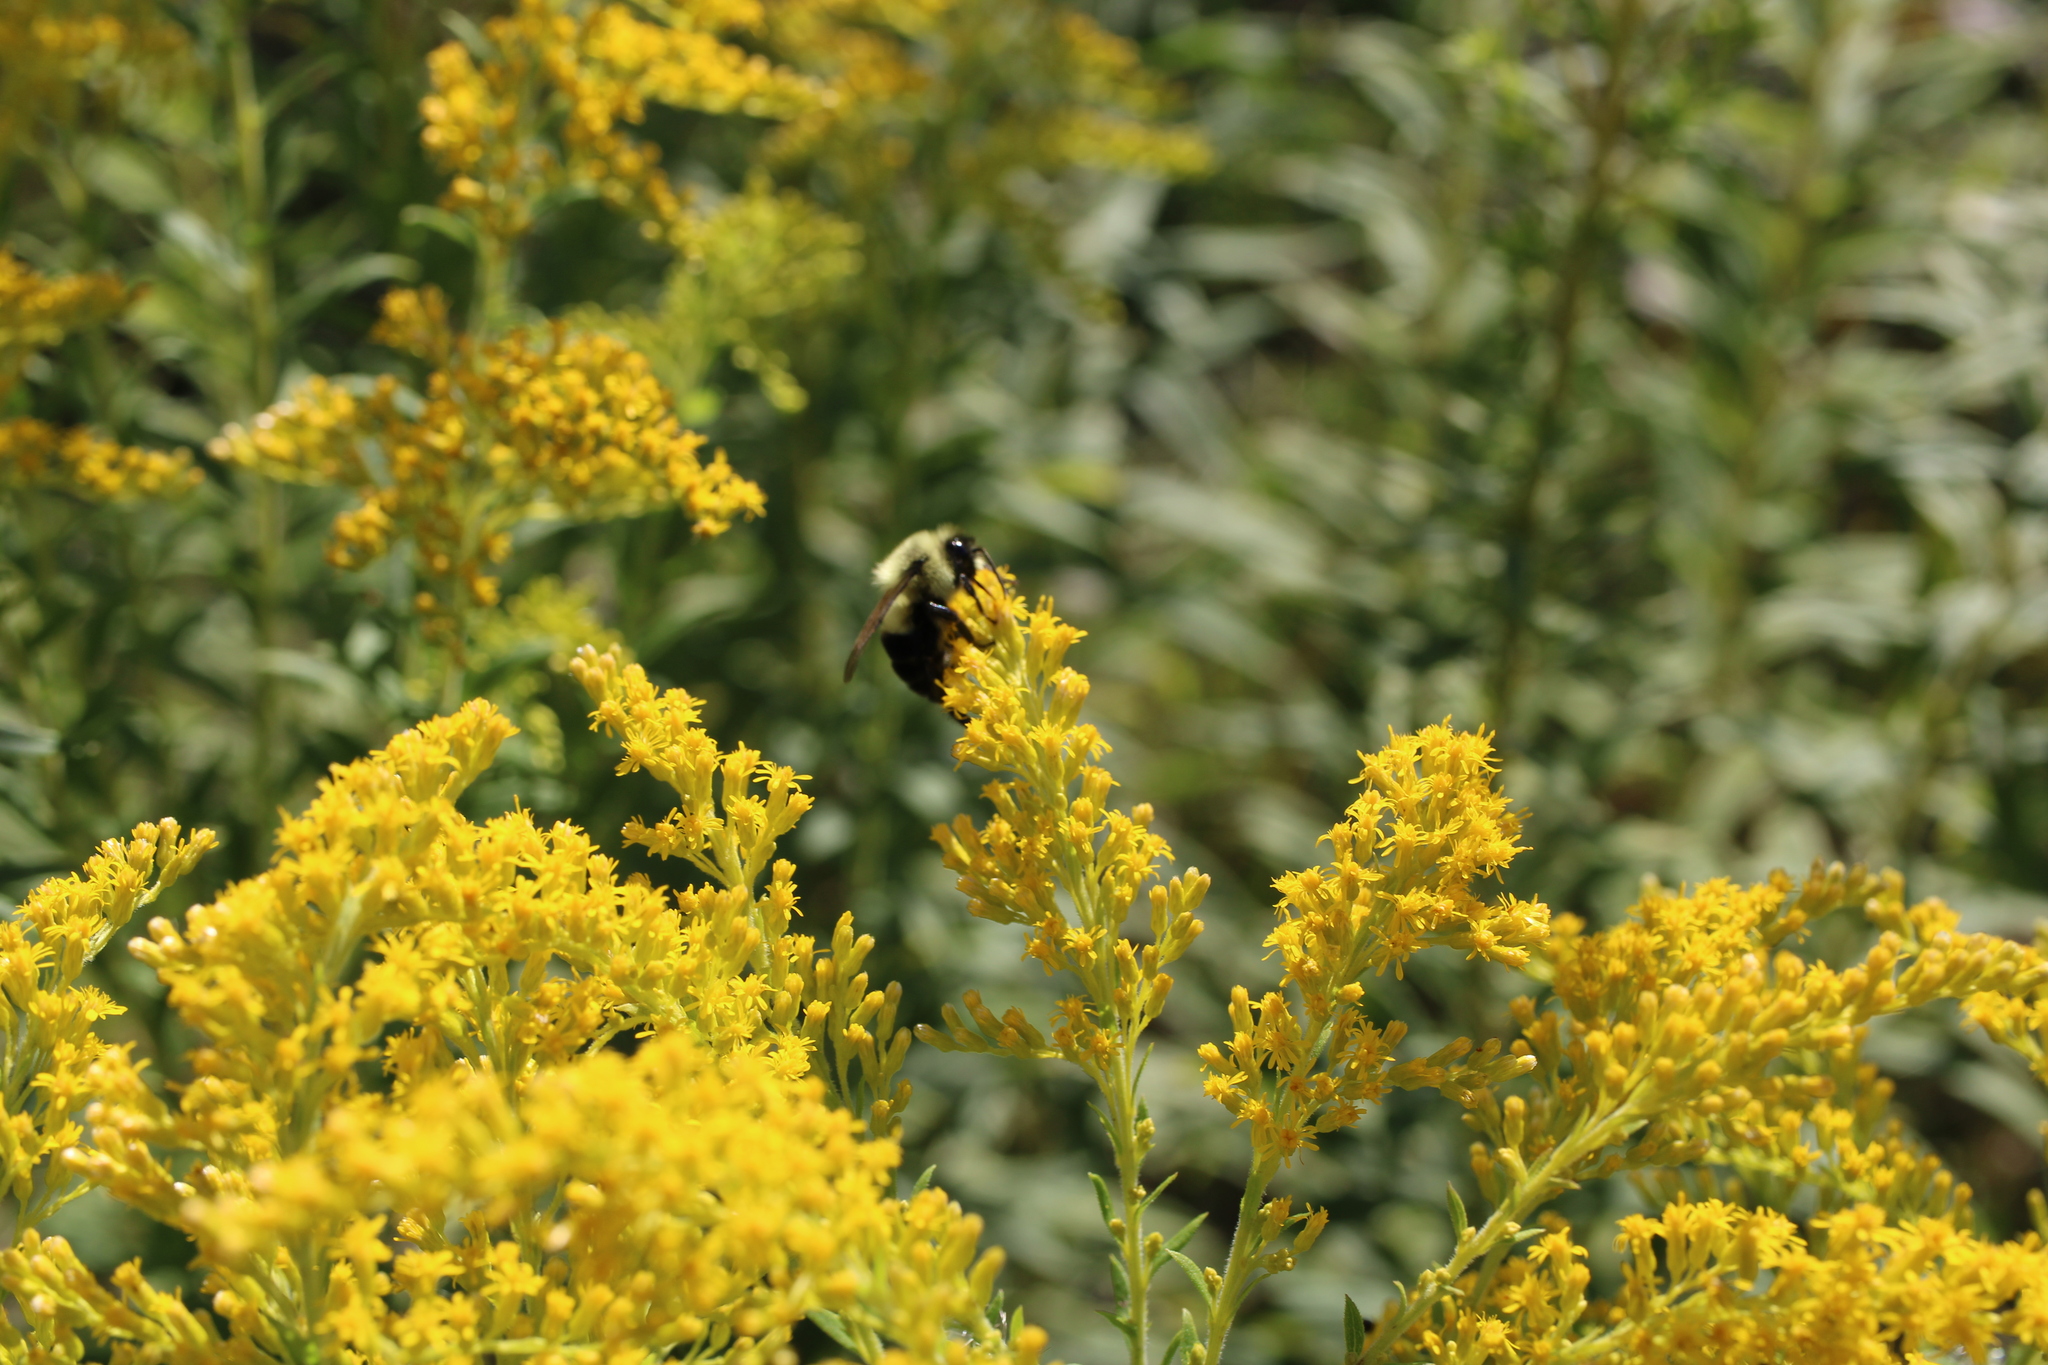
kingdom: Animalia
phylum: Arthropoda
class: Insecta
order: Hymenoptera
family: Apidae
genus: Bombus
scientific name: Bombus impatiens
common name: Common eastern bumble bee
